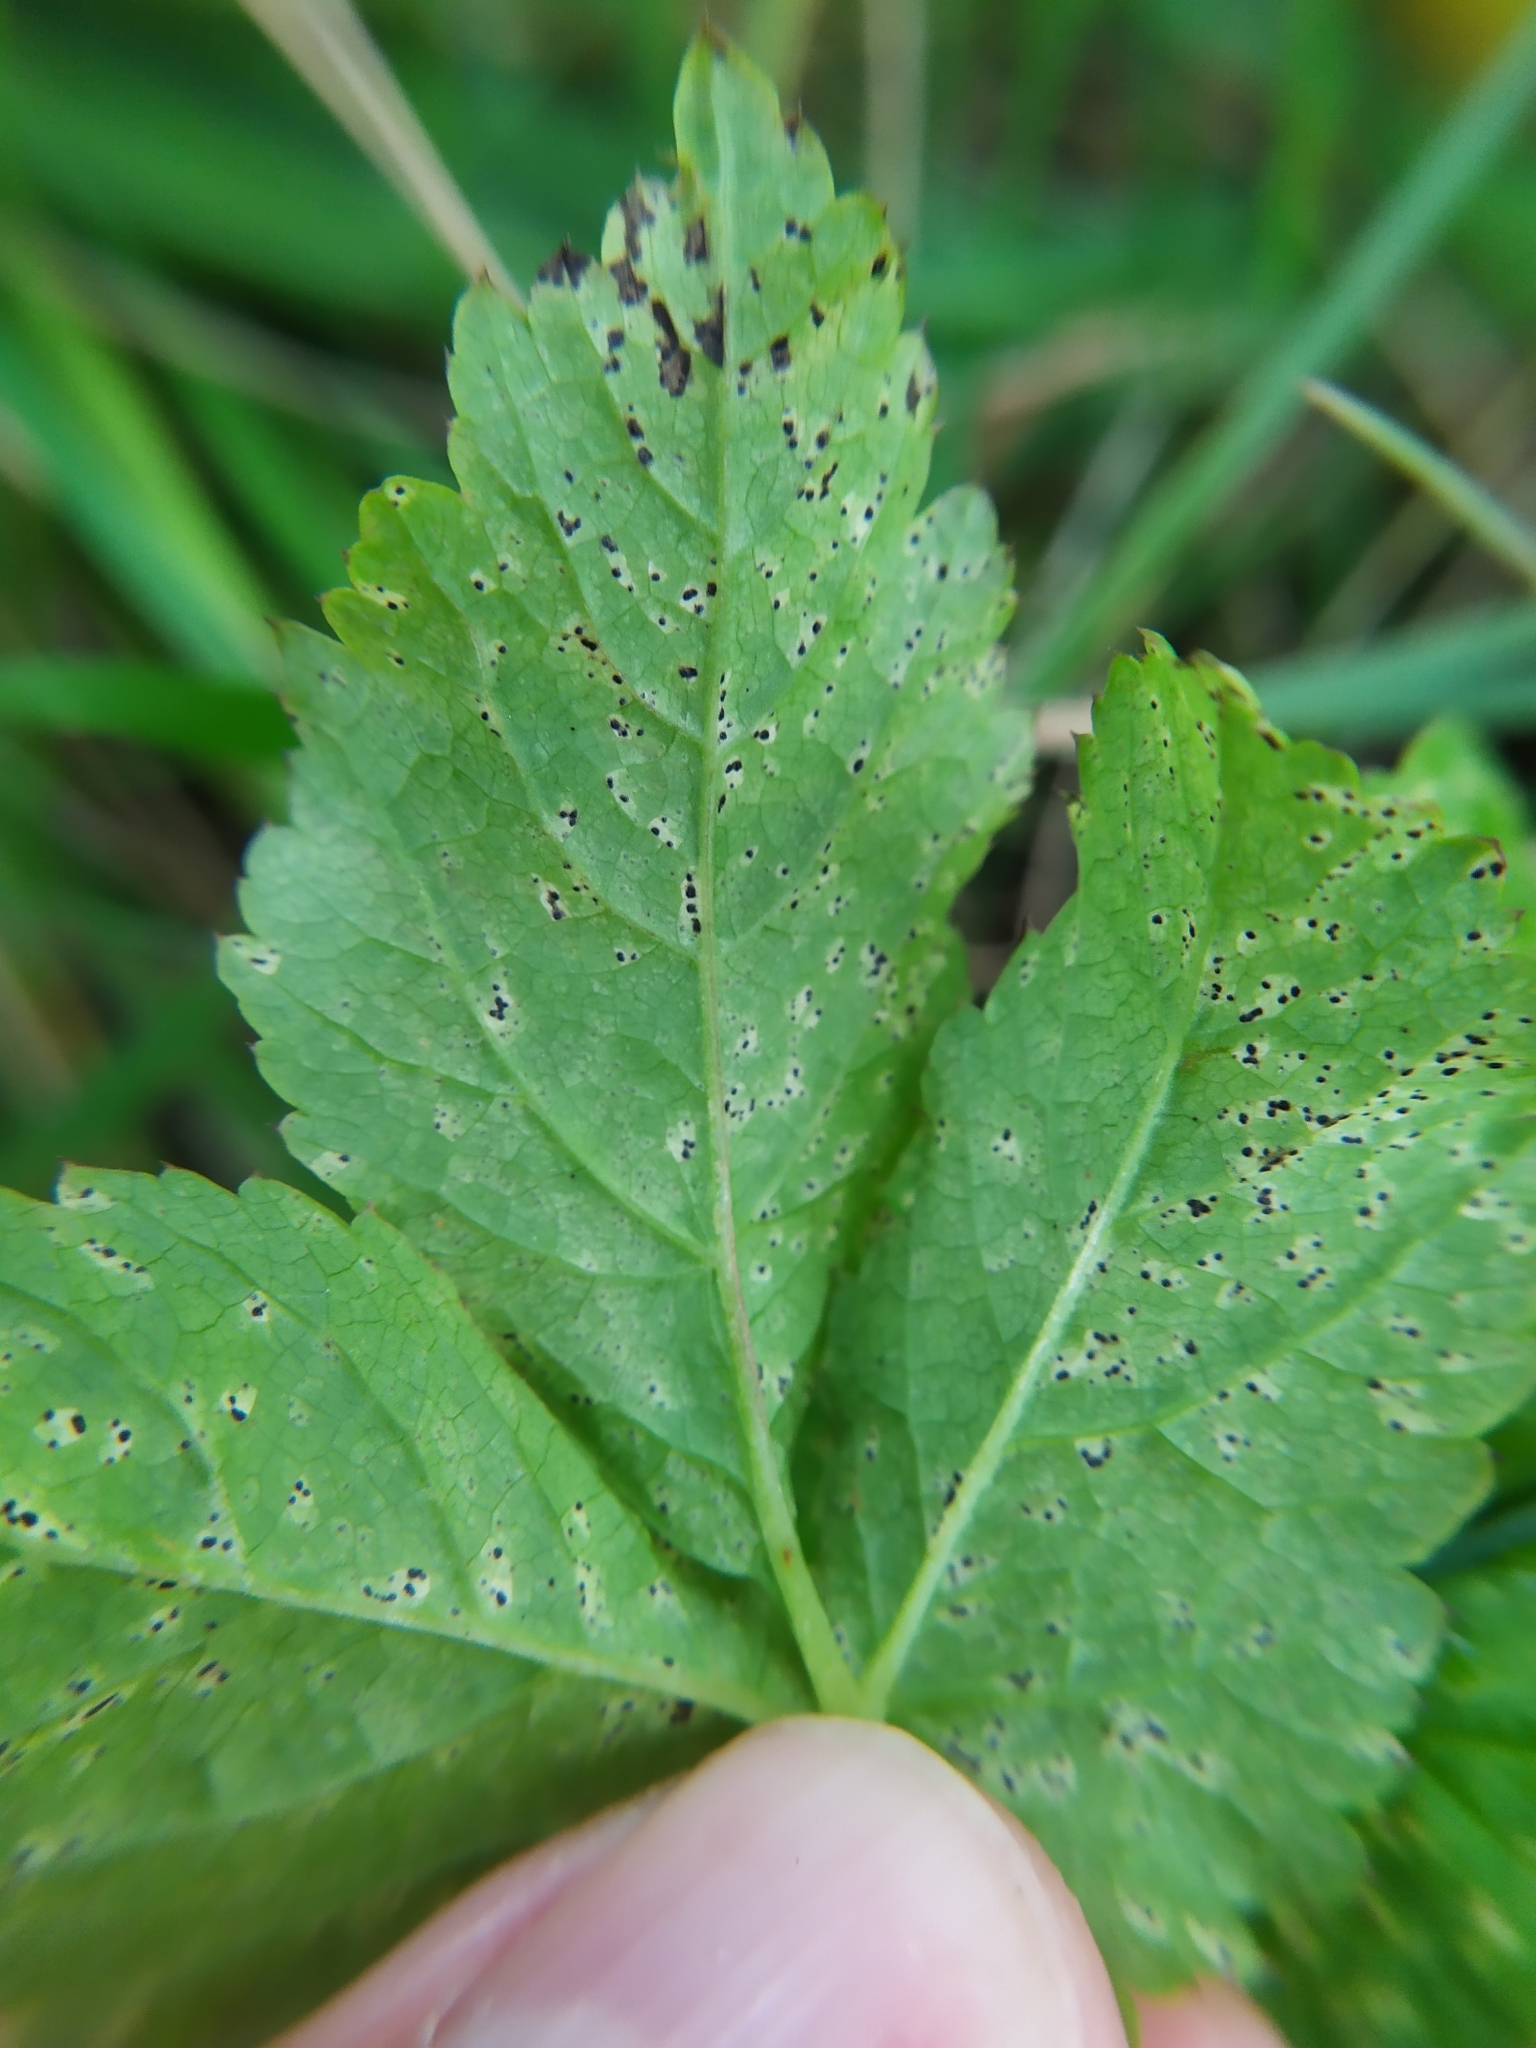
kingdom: Fungi
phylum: Ascomycota
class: Dothideomycetes
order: Mycosphaerellales
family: Mycosphaerellaceae
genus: Mycosphaerella
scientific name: Mycosphaerella podagrariae
